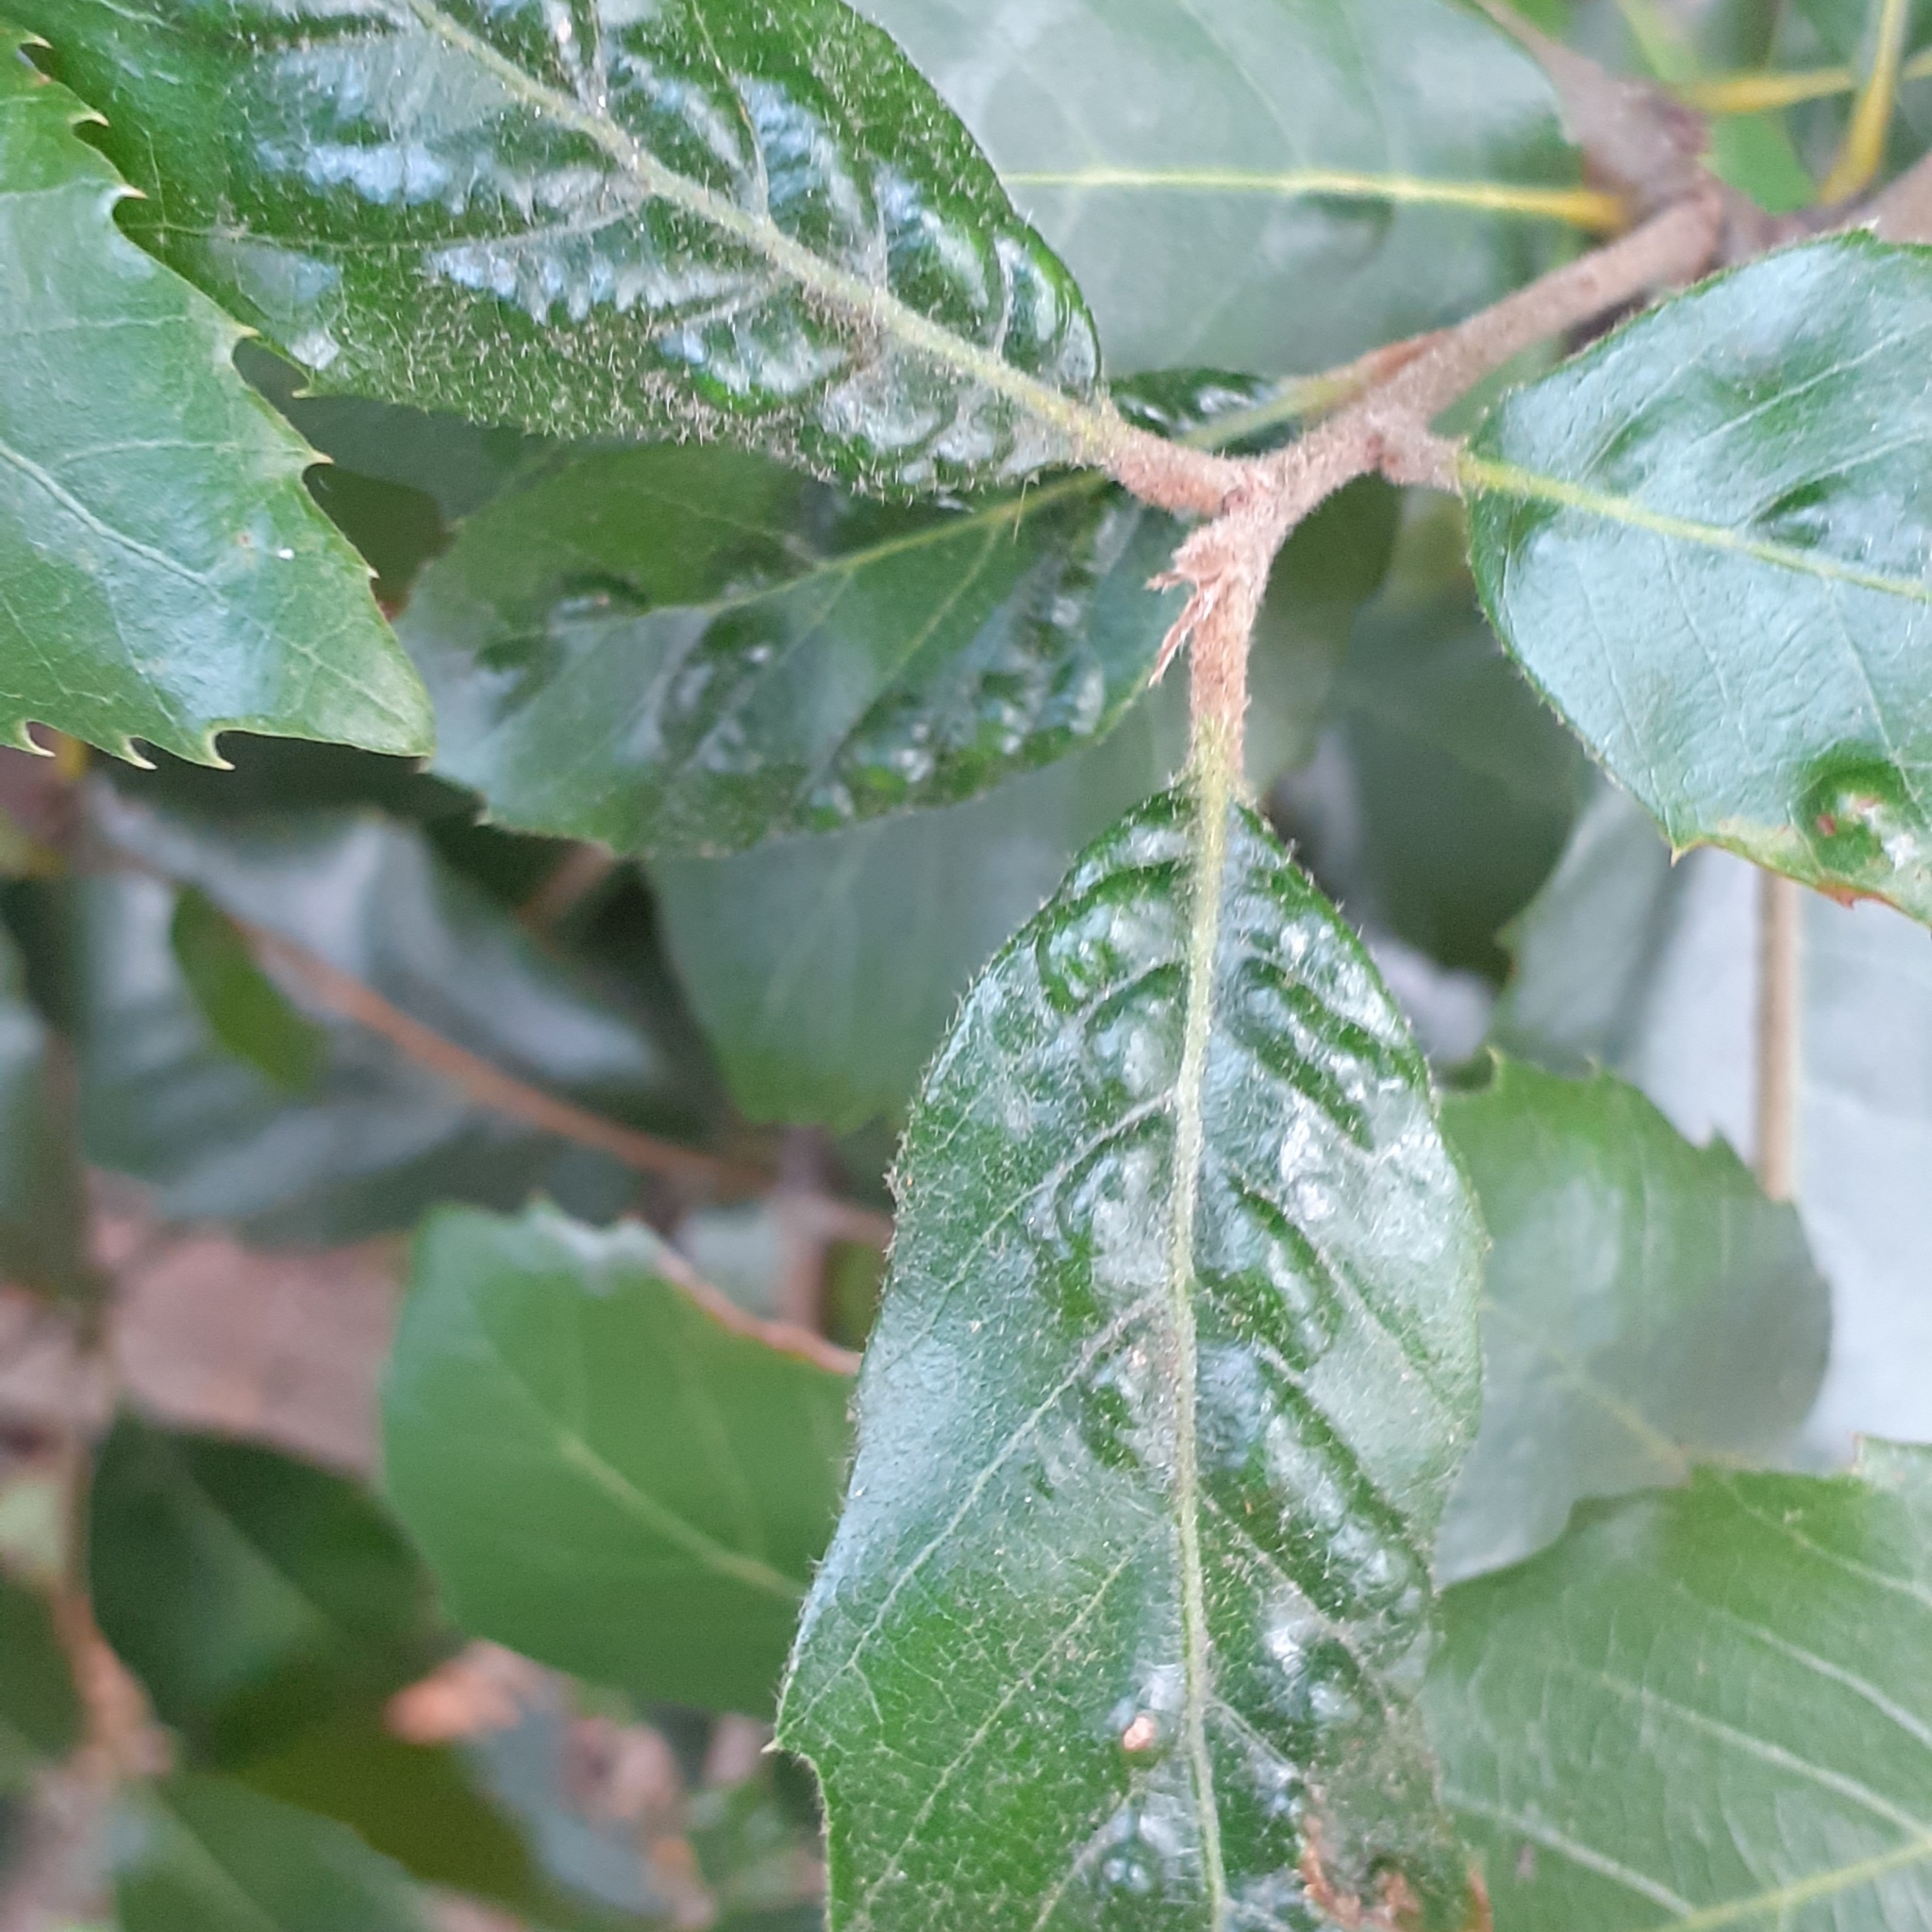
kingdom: Animalia
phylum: Arthropoda
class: Arachnida
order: Trombidiformes
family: Eriophyidae
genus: Aceria
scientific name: Aceria ilicis
